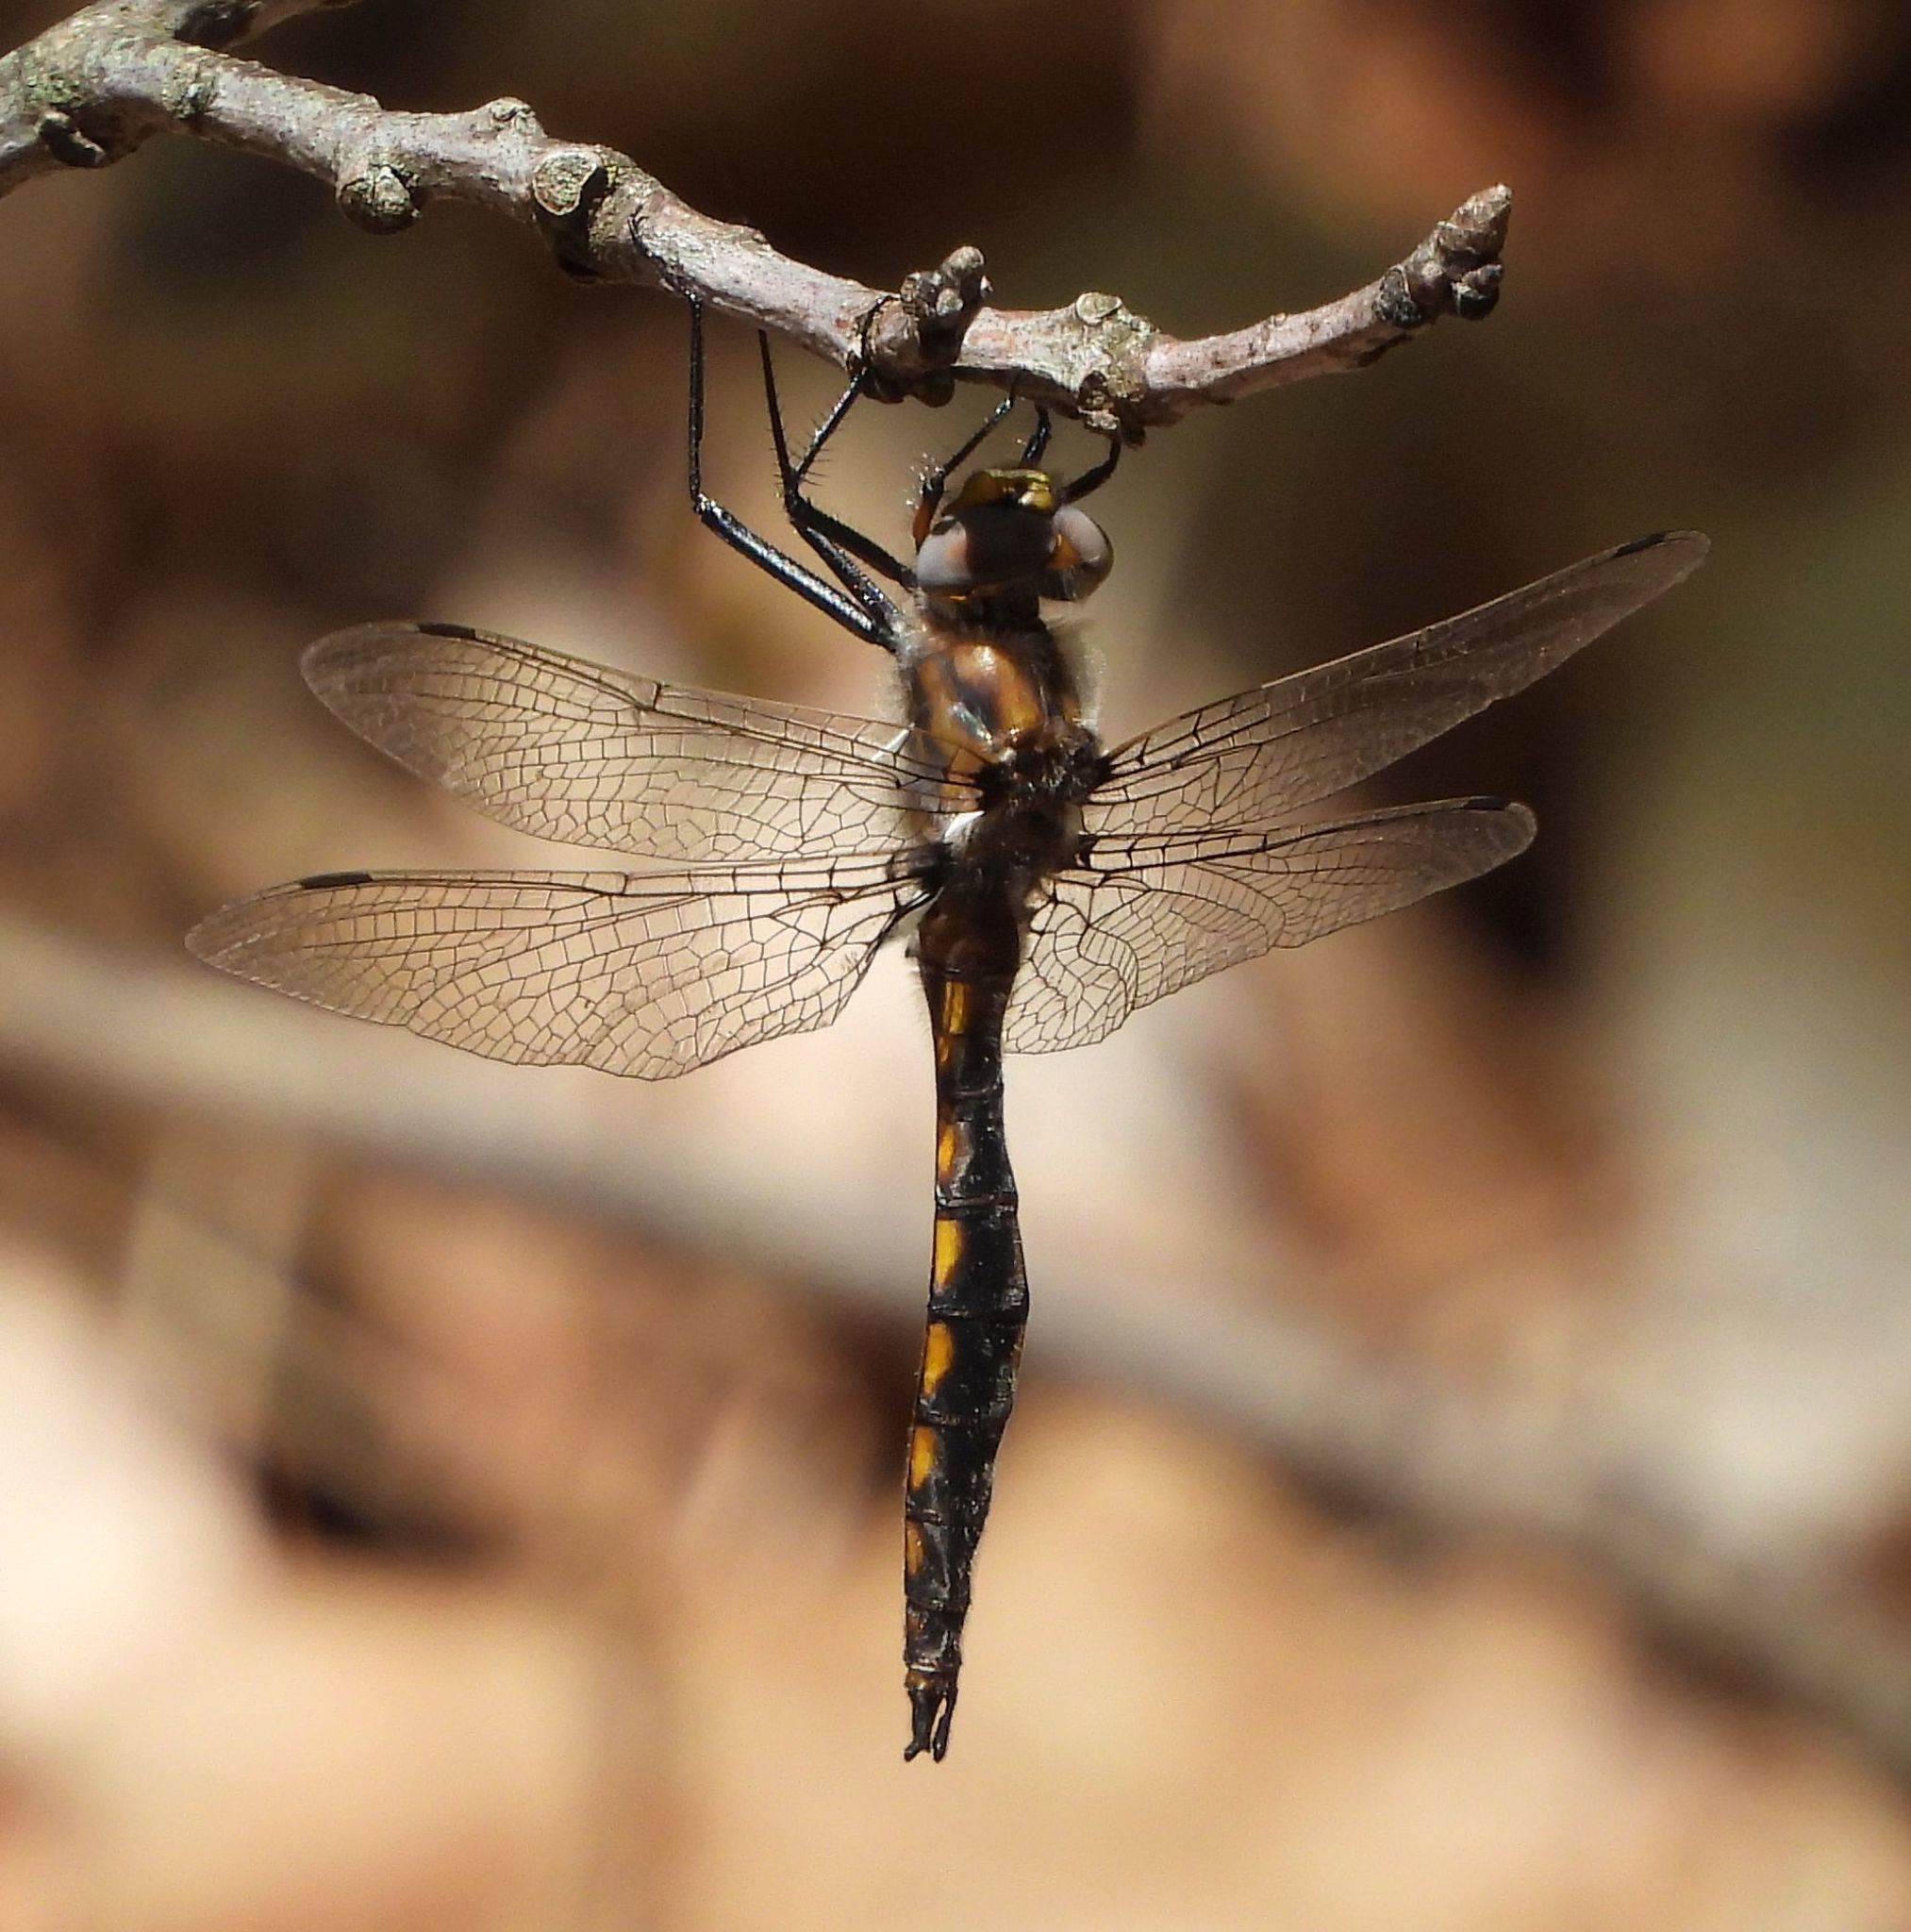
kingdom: Animalia
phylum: Arthropoda
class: Insecta
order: Odonata
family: Corduliidae
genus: Epitheca
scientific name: Epitheca canis
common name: Beaverpond baskettail
